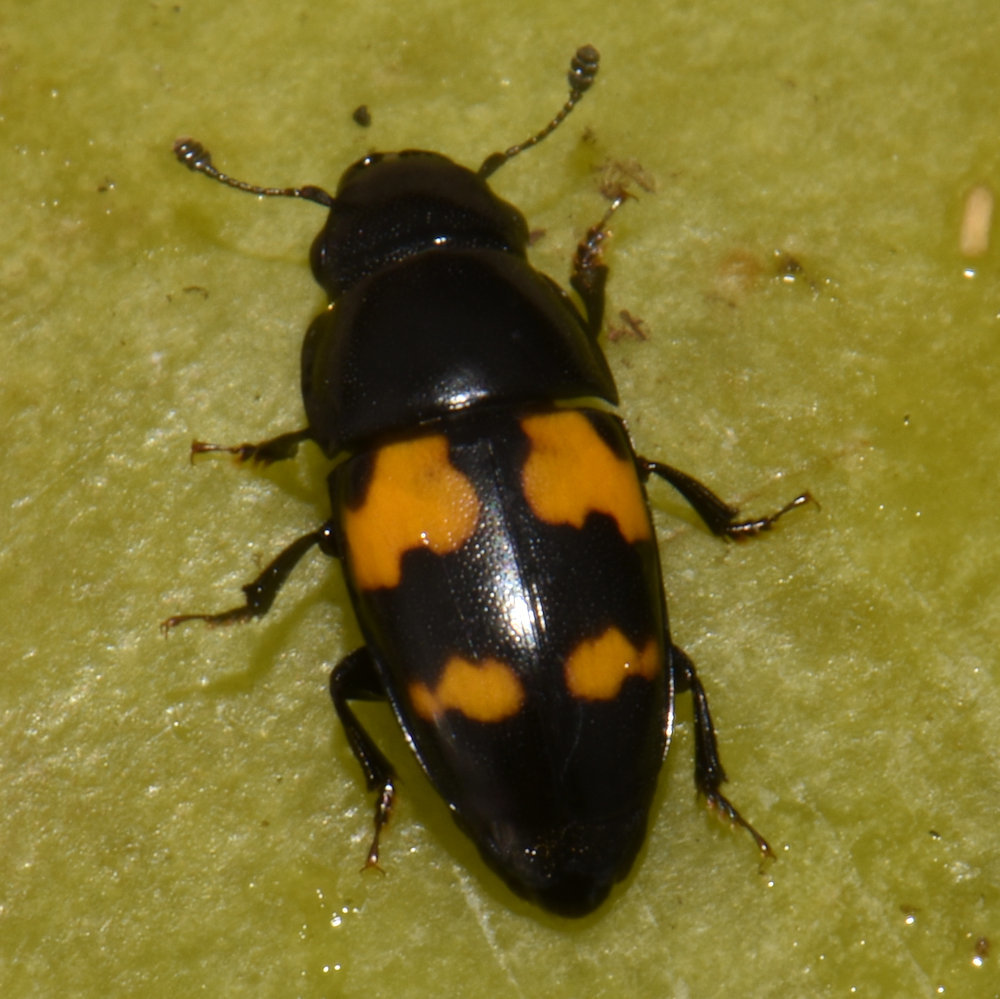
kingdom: Animalia
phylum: Arthropoda
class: Insecta
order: Coleoptera
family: Nitidulidae
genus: Glischrochilus
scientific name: Glischrochilus fasciatus
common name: Picnic beetle
